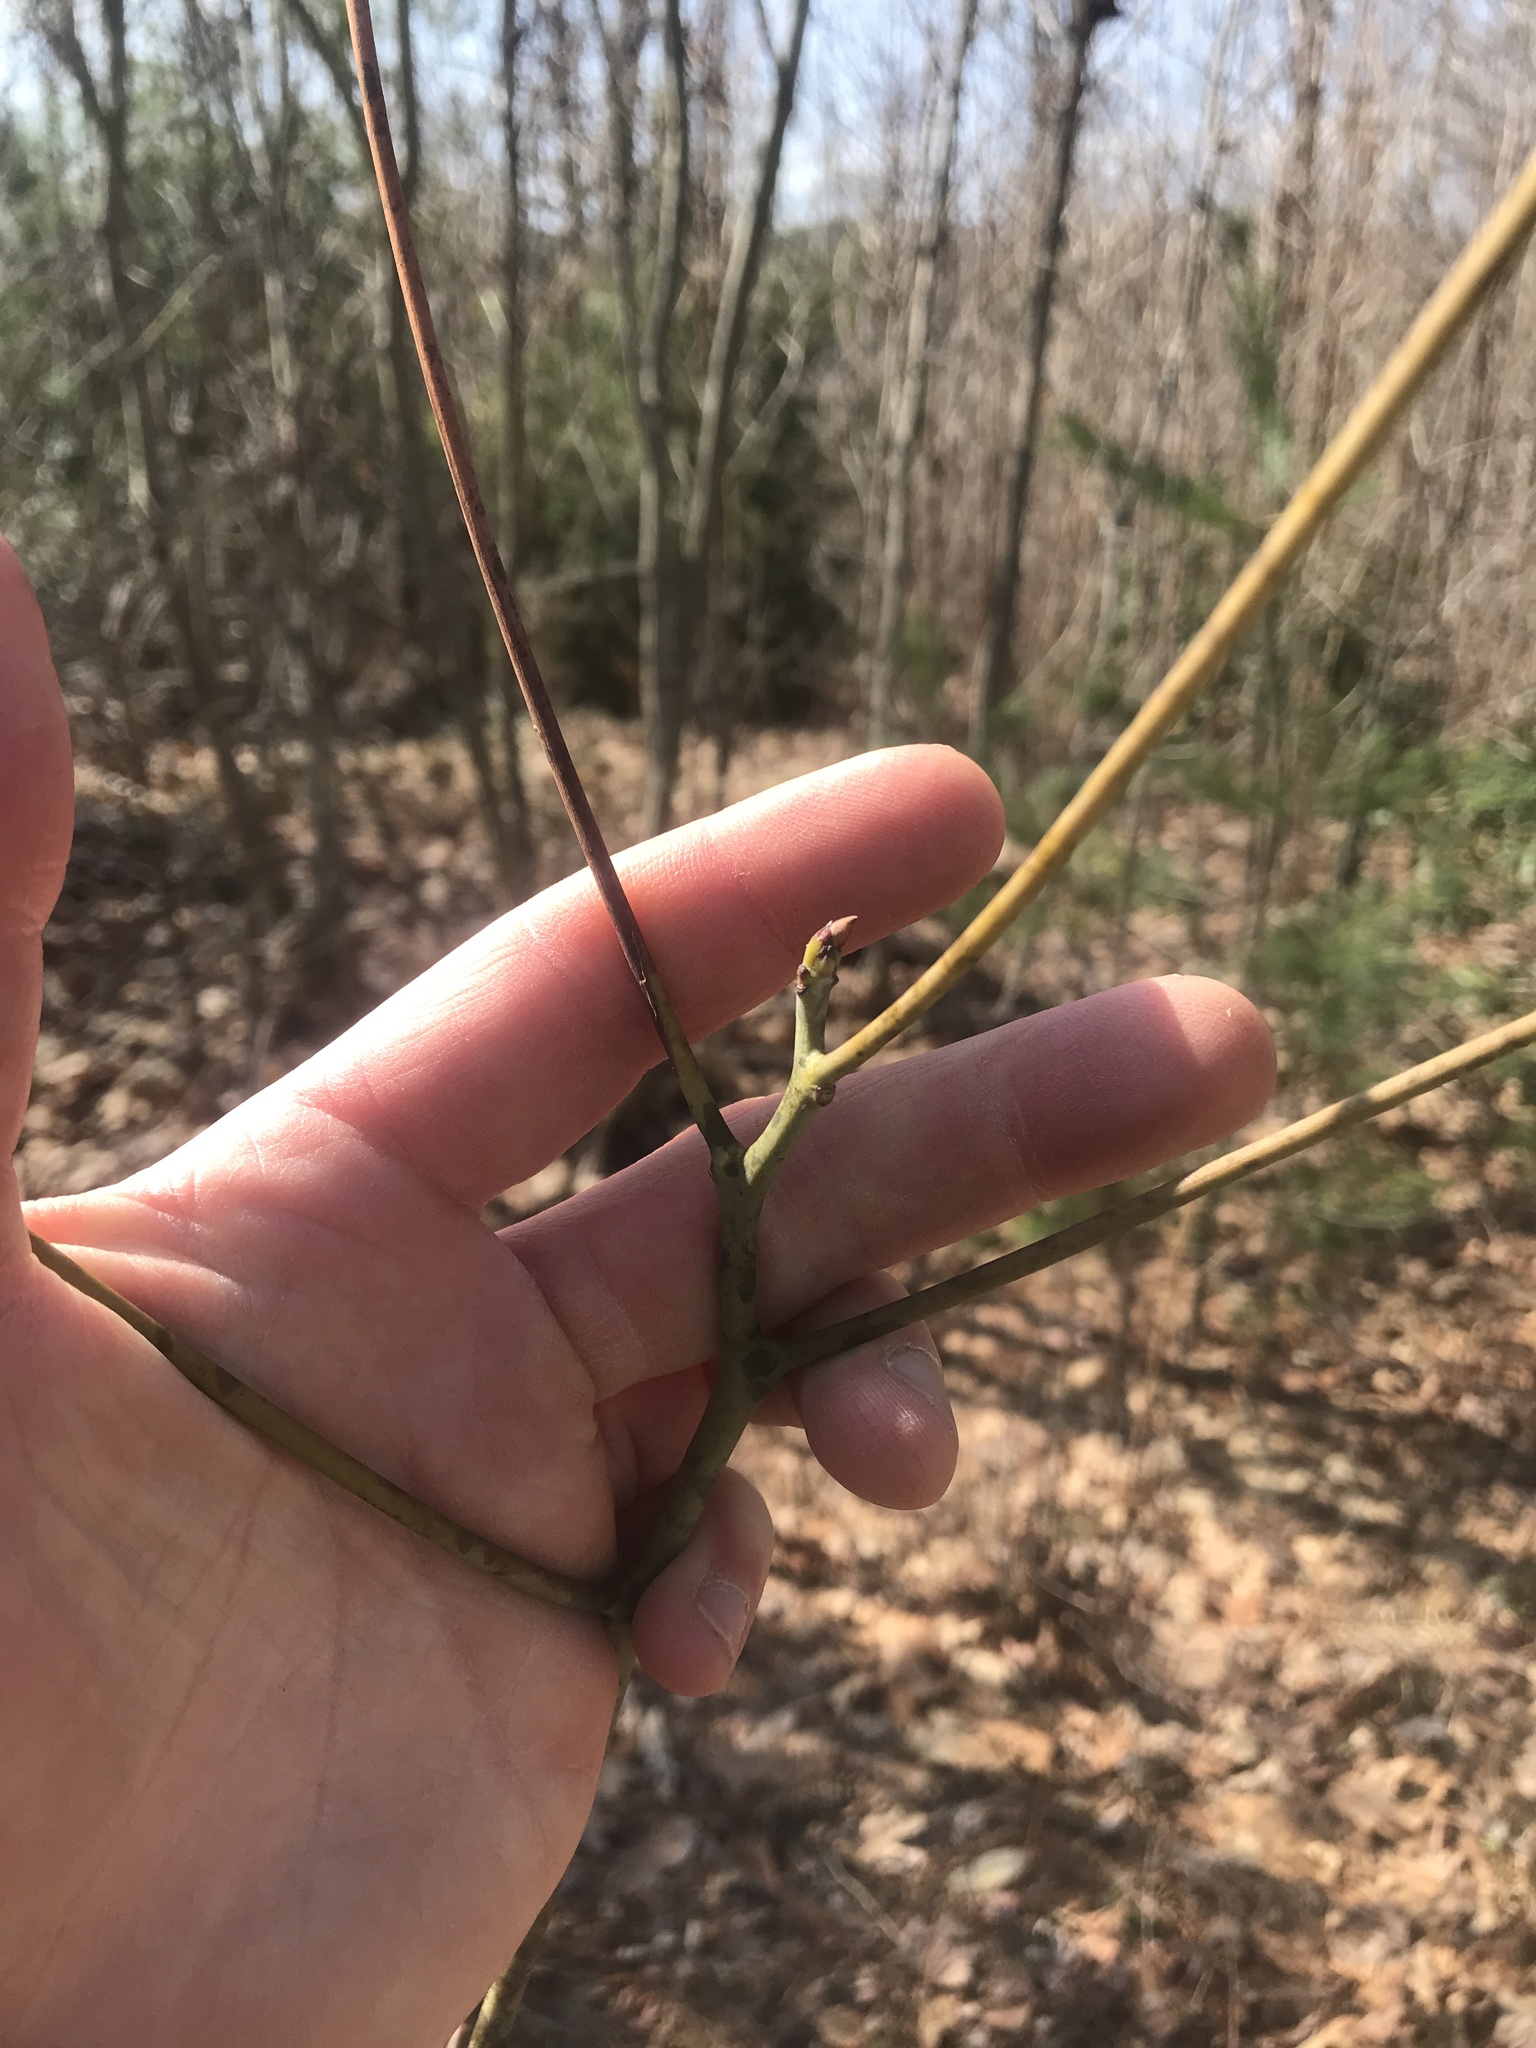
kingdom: Plantae
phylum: Tracheophyta
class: Magnoliopsida
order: Laurales
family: Lauraceae
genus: Sassafras
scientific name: Sassafras albidum
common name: Sassafras
